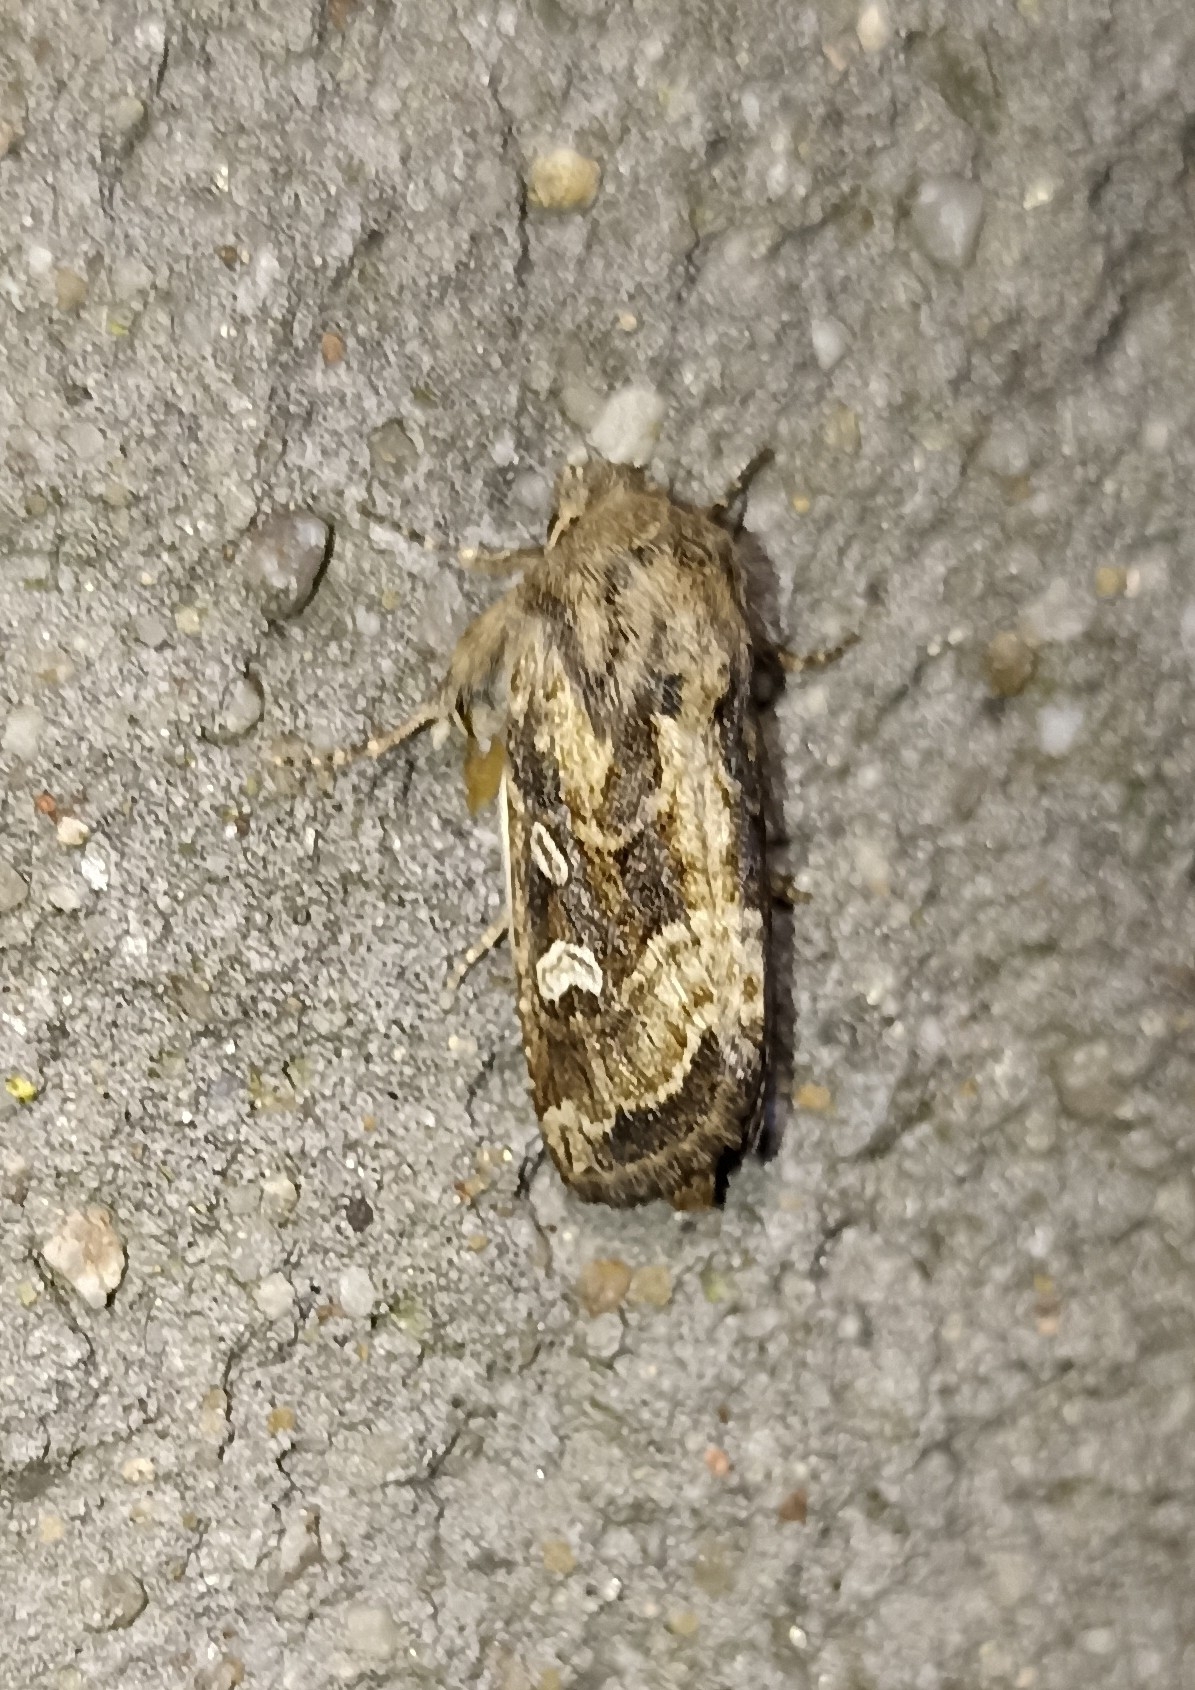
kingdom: Animalia
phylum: Arthropoda
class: Insecta
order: Lepidoptera
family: Noctuidae
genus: Luperina
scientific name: Luperina dumerilii
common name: Dumeril's rustic
